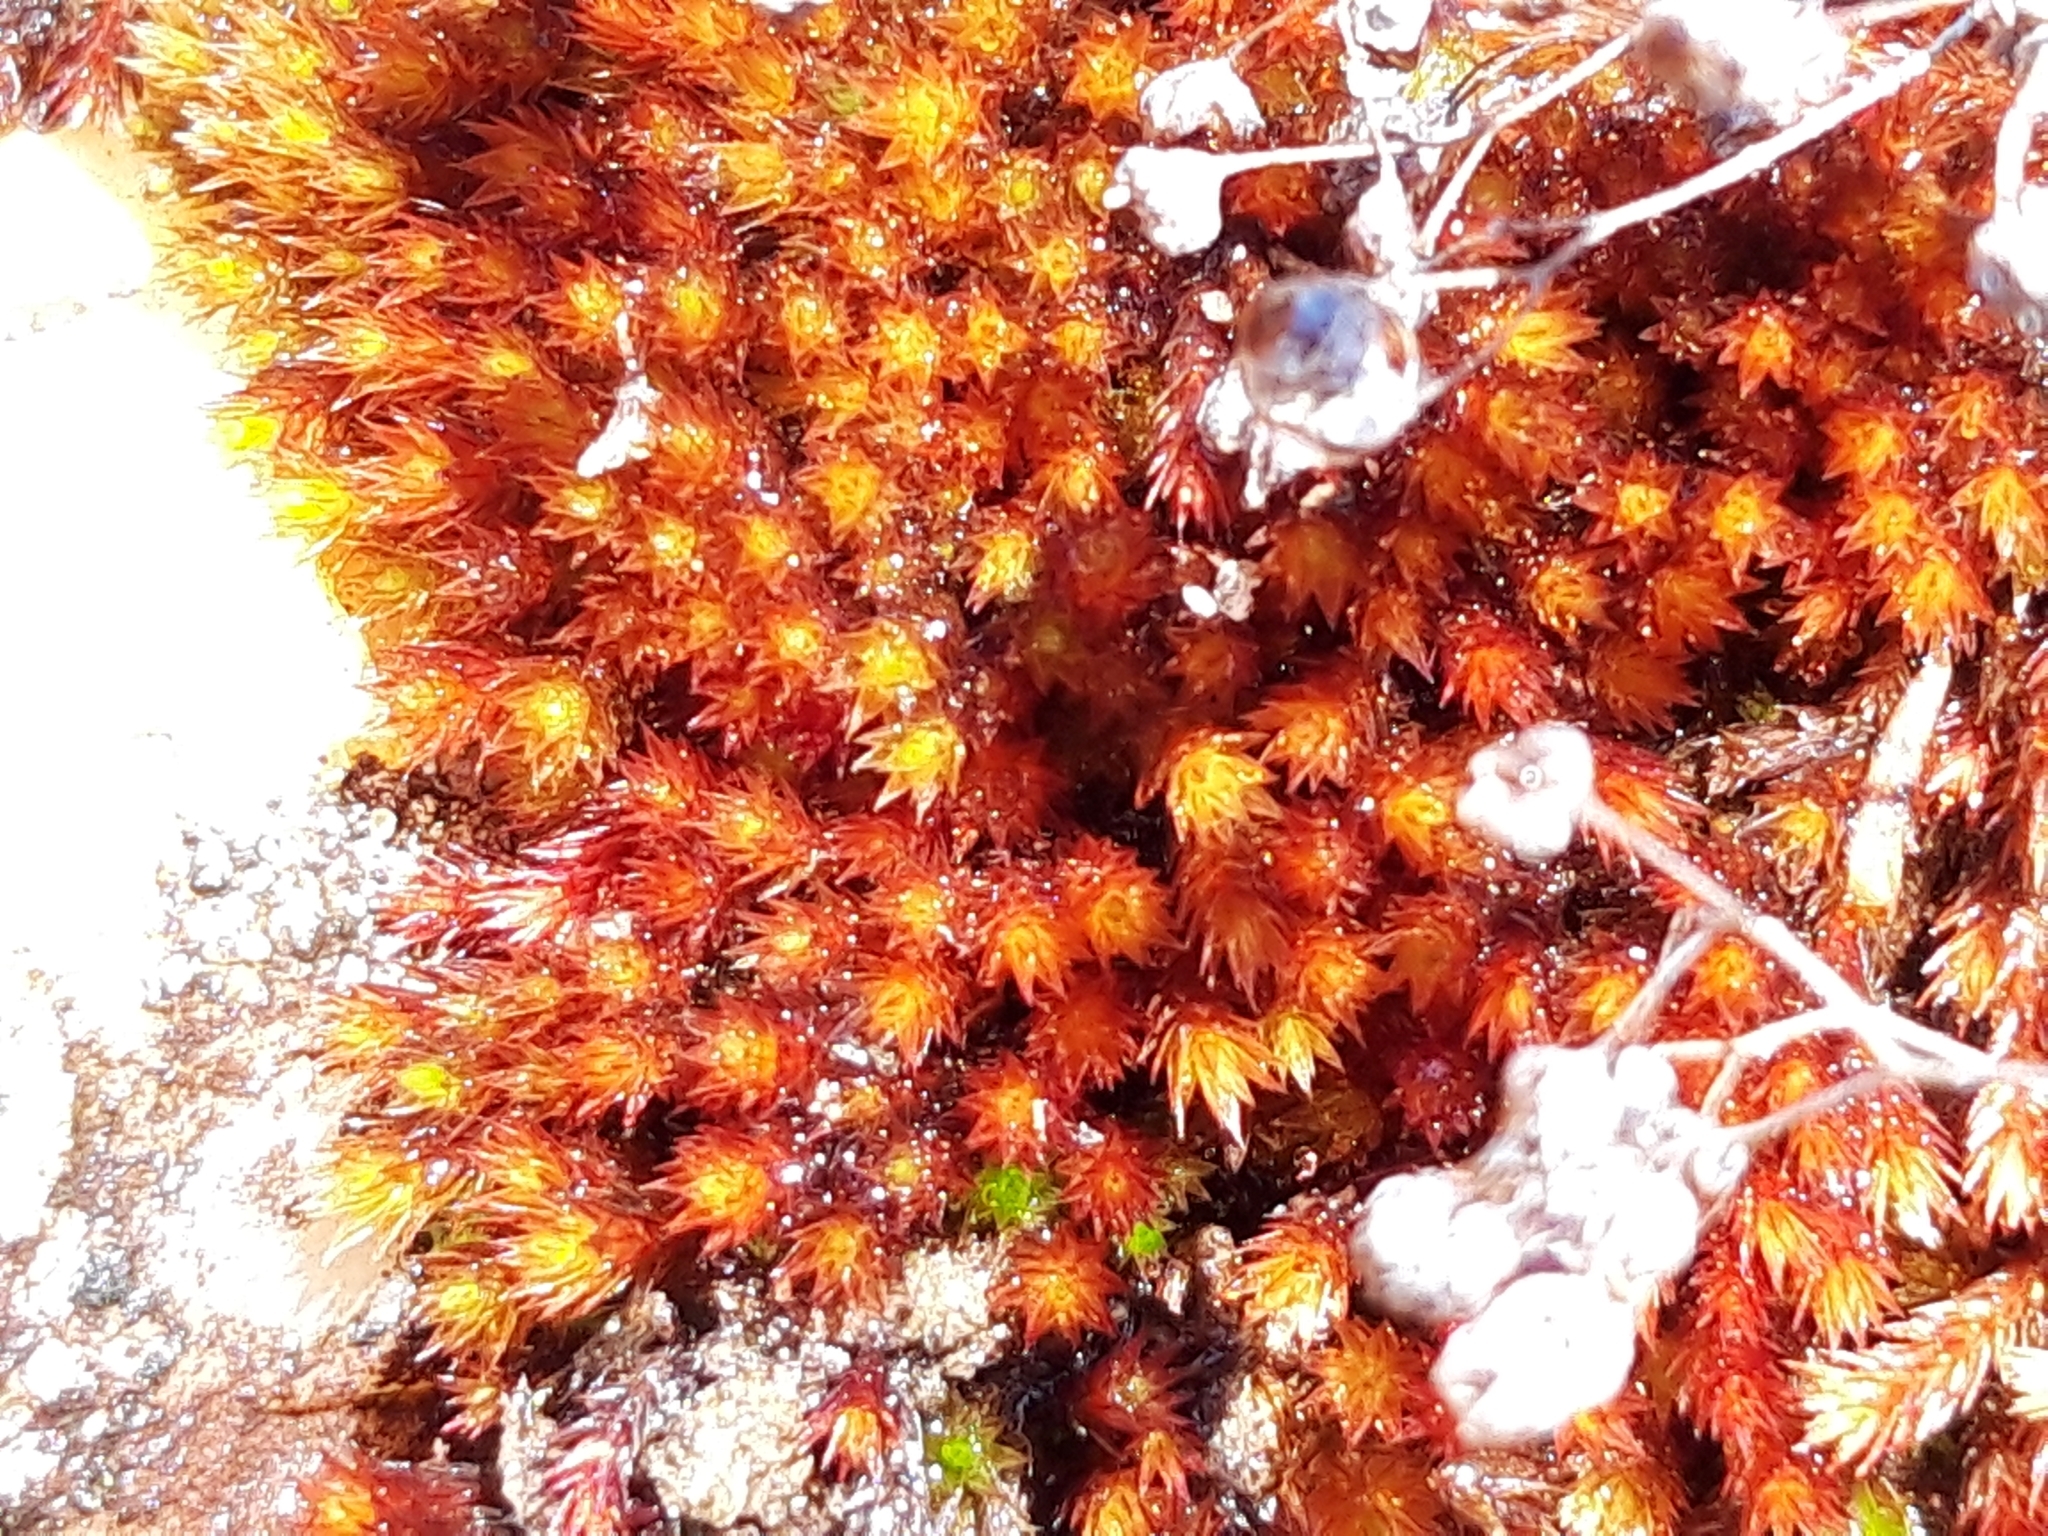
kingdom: Plantae
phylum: Bryophyta
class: Bryopsida
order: Bryales
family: Bryaceae
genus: Imbribryum
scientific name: Imbribryum alpinum
